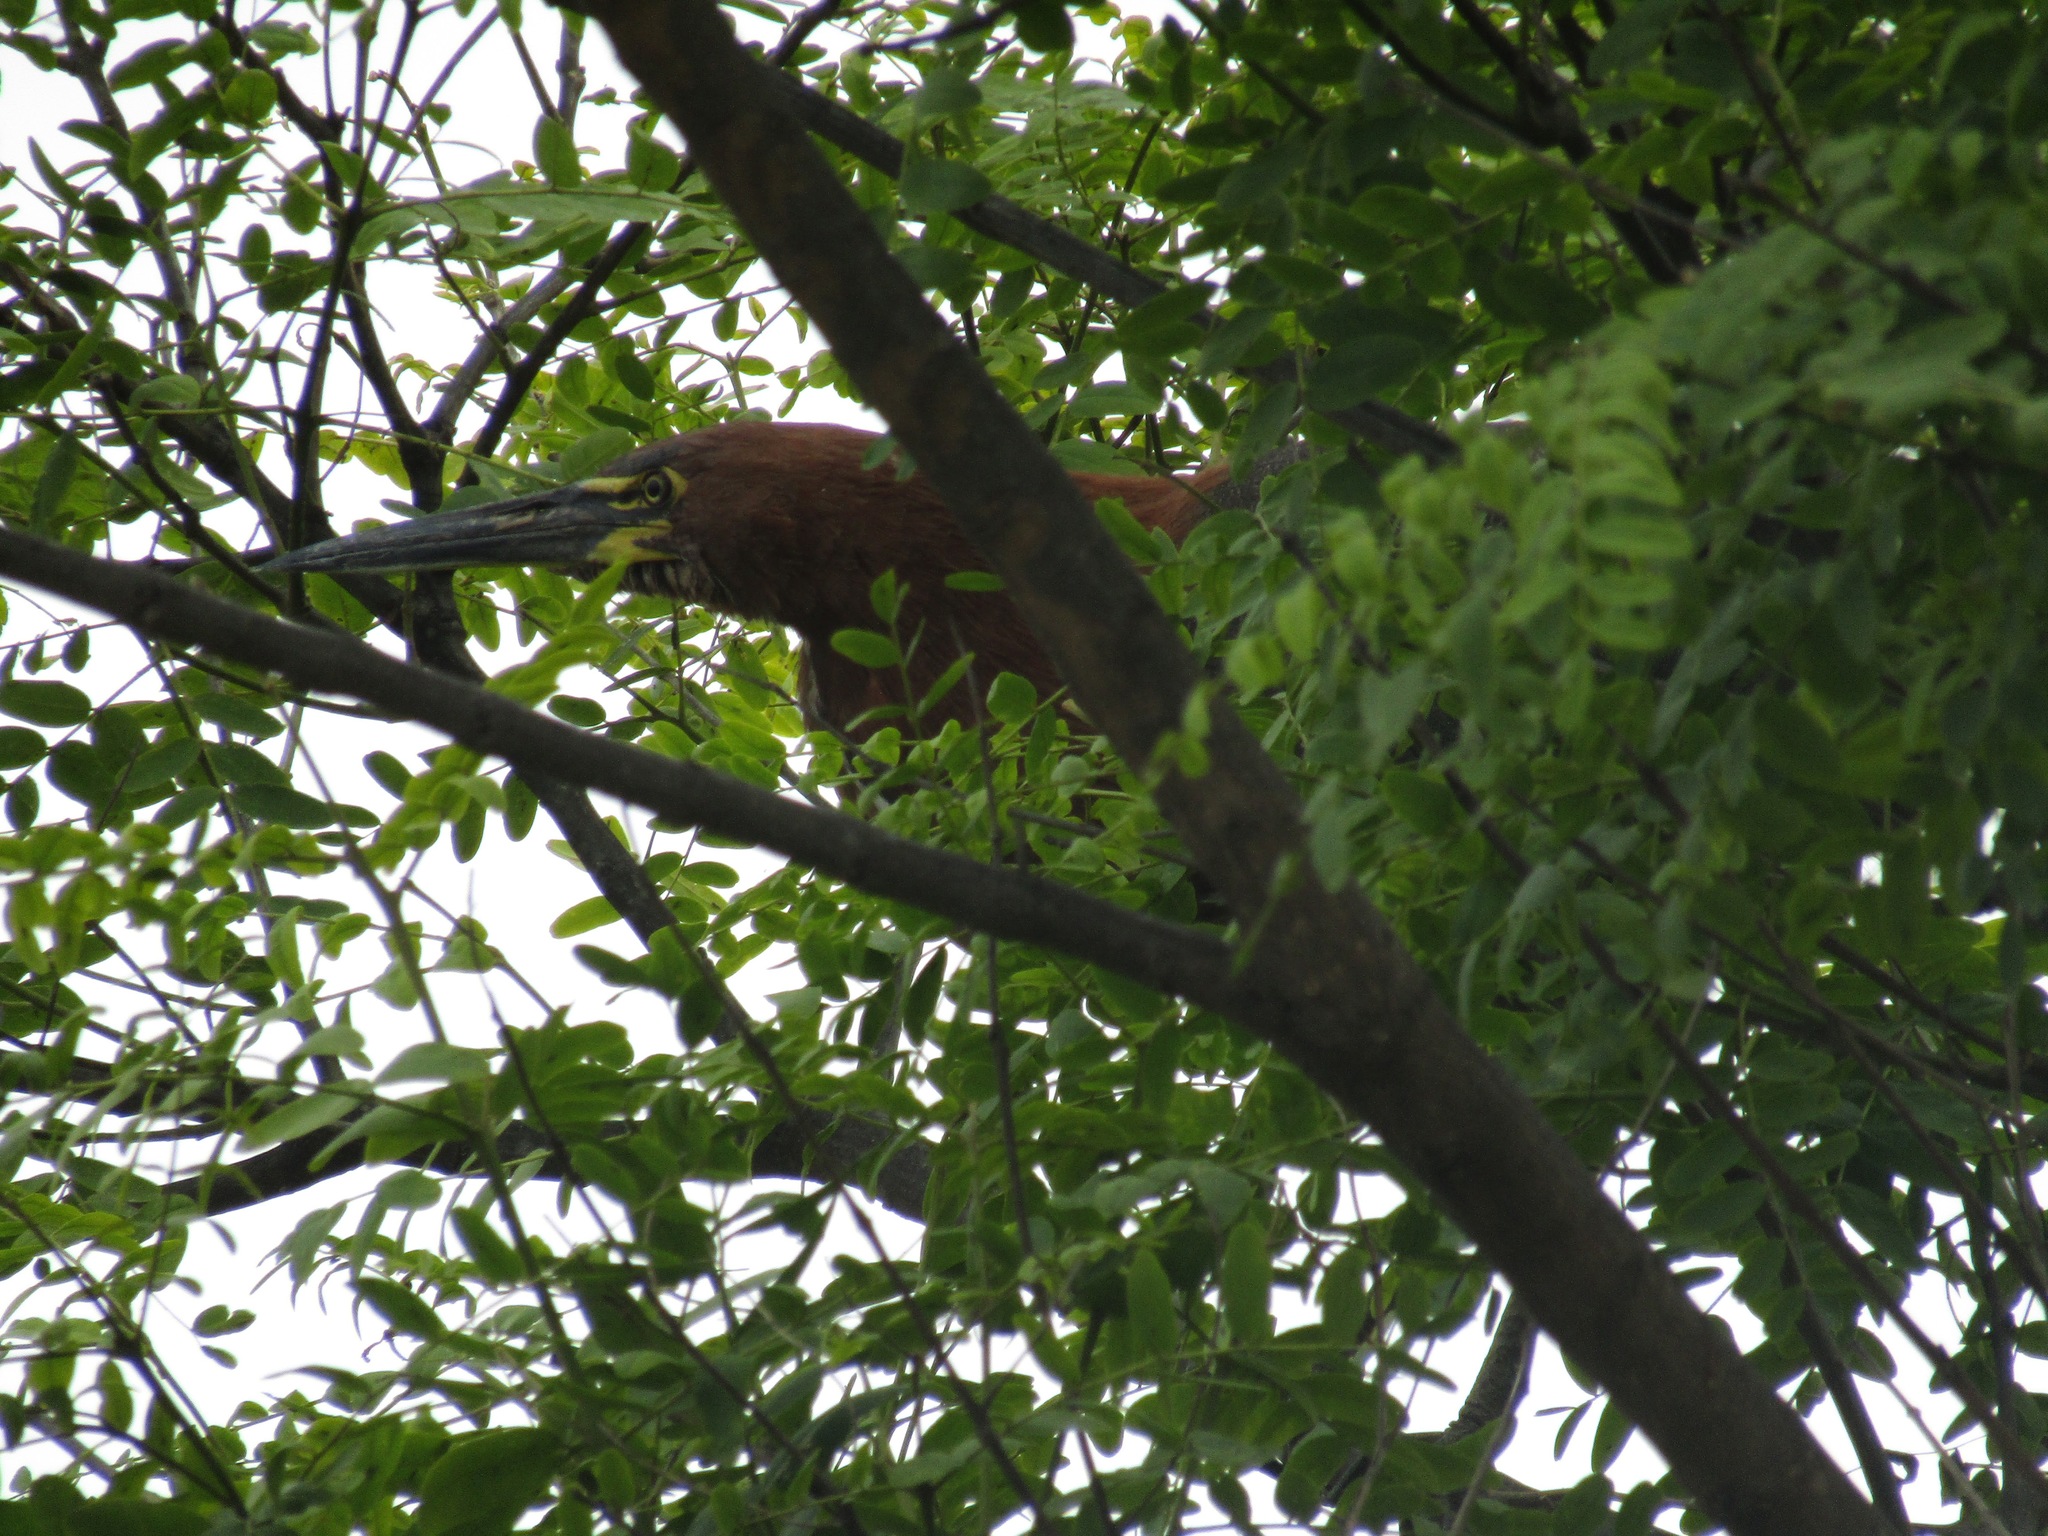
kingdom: Animalia
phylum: Chordata
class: Aves
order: Pelecaniformes
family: Ardeidae
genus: Tigrisoma
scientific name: Tigrisoma lineatum
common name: Rufescent tiger-heron
